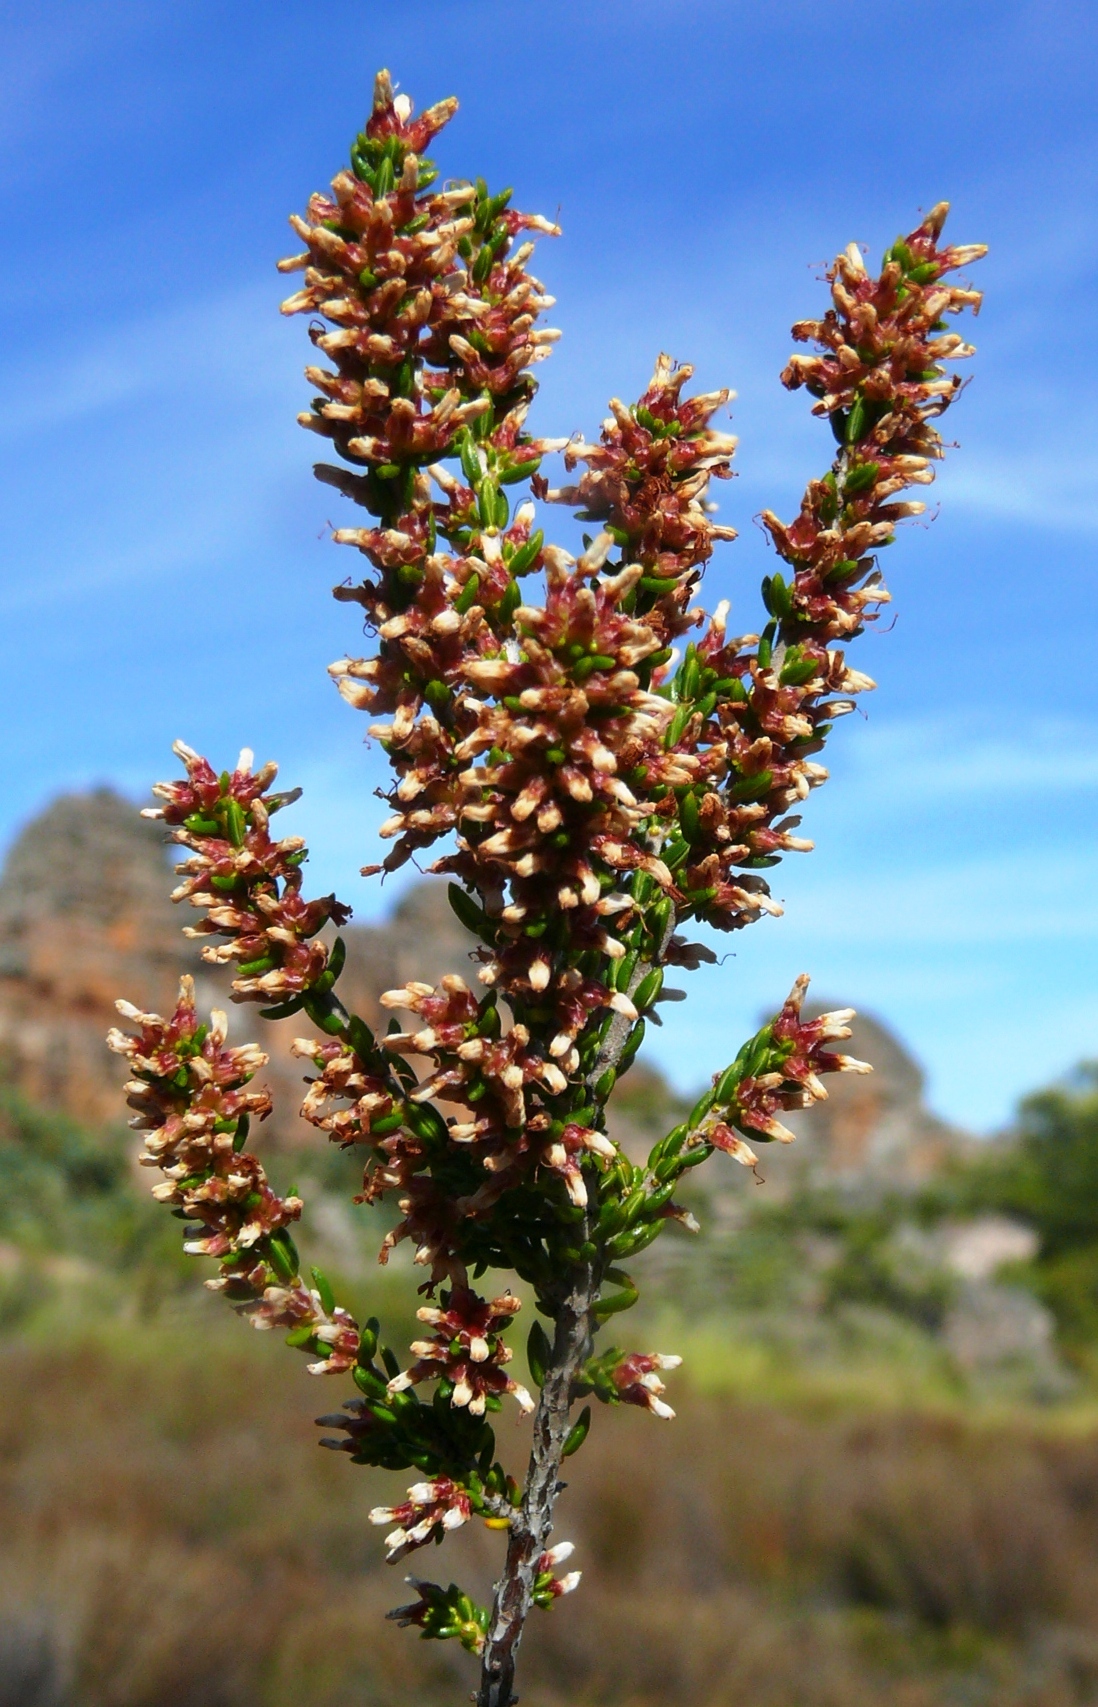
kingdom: Plantae
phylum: Tracheophyta
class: Magnoliopsida
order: Ericales
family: Ericaceae
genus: Erica
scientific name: Erica glabra
